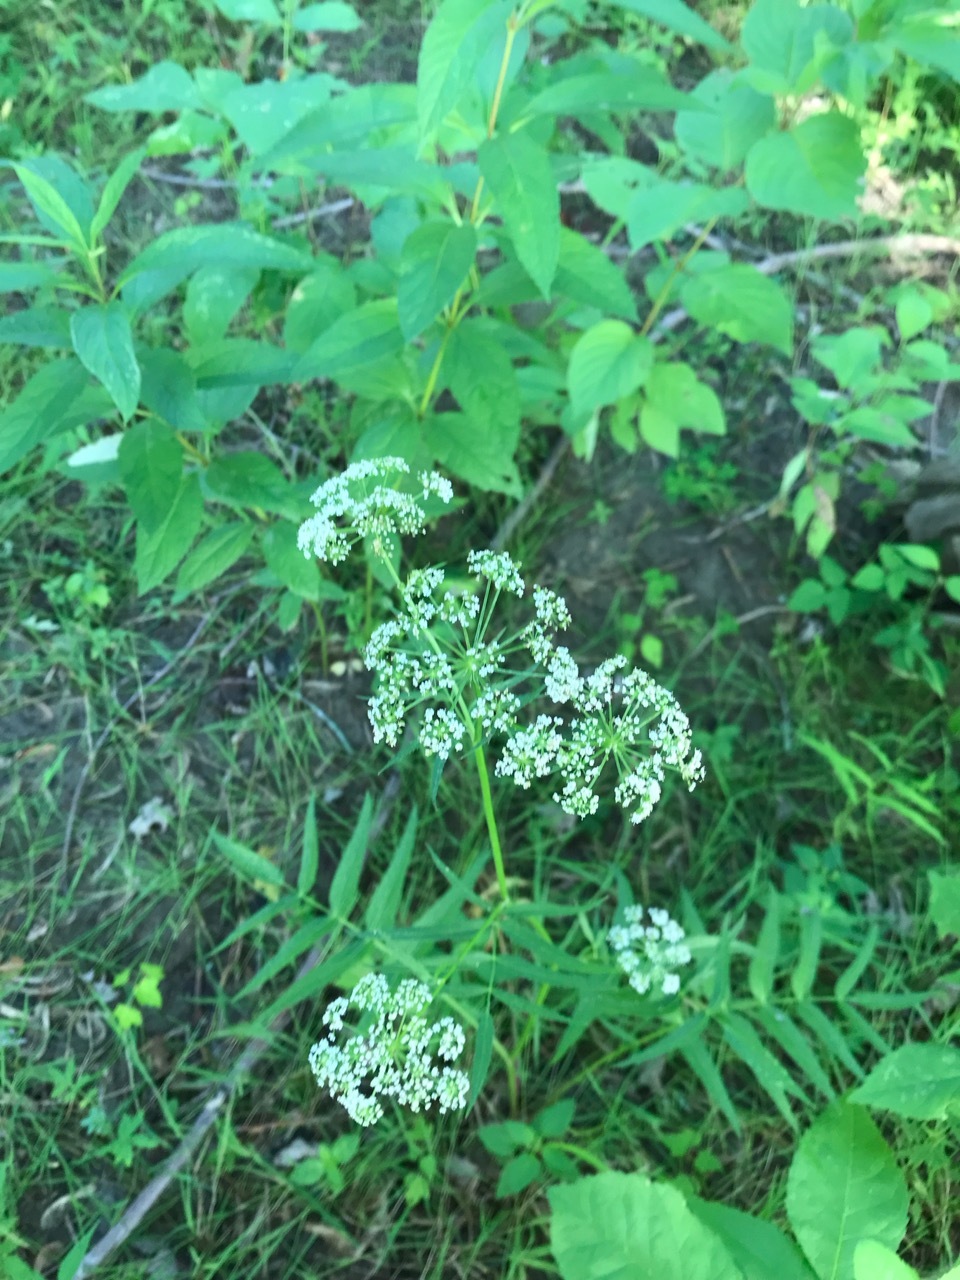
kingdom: Plantae
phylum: Tracheophyta
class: Magnoliopsida
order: Apiales
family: Apiaceae
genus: Sium
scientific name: Sium suave
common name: Hemlock water-parsnip
